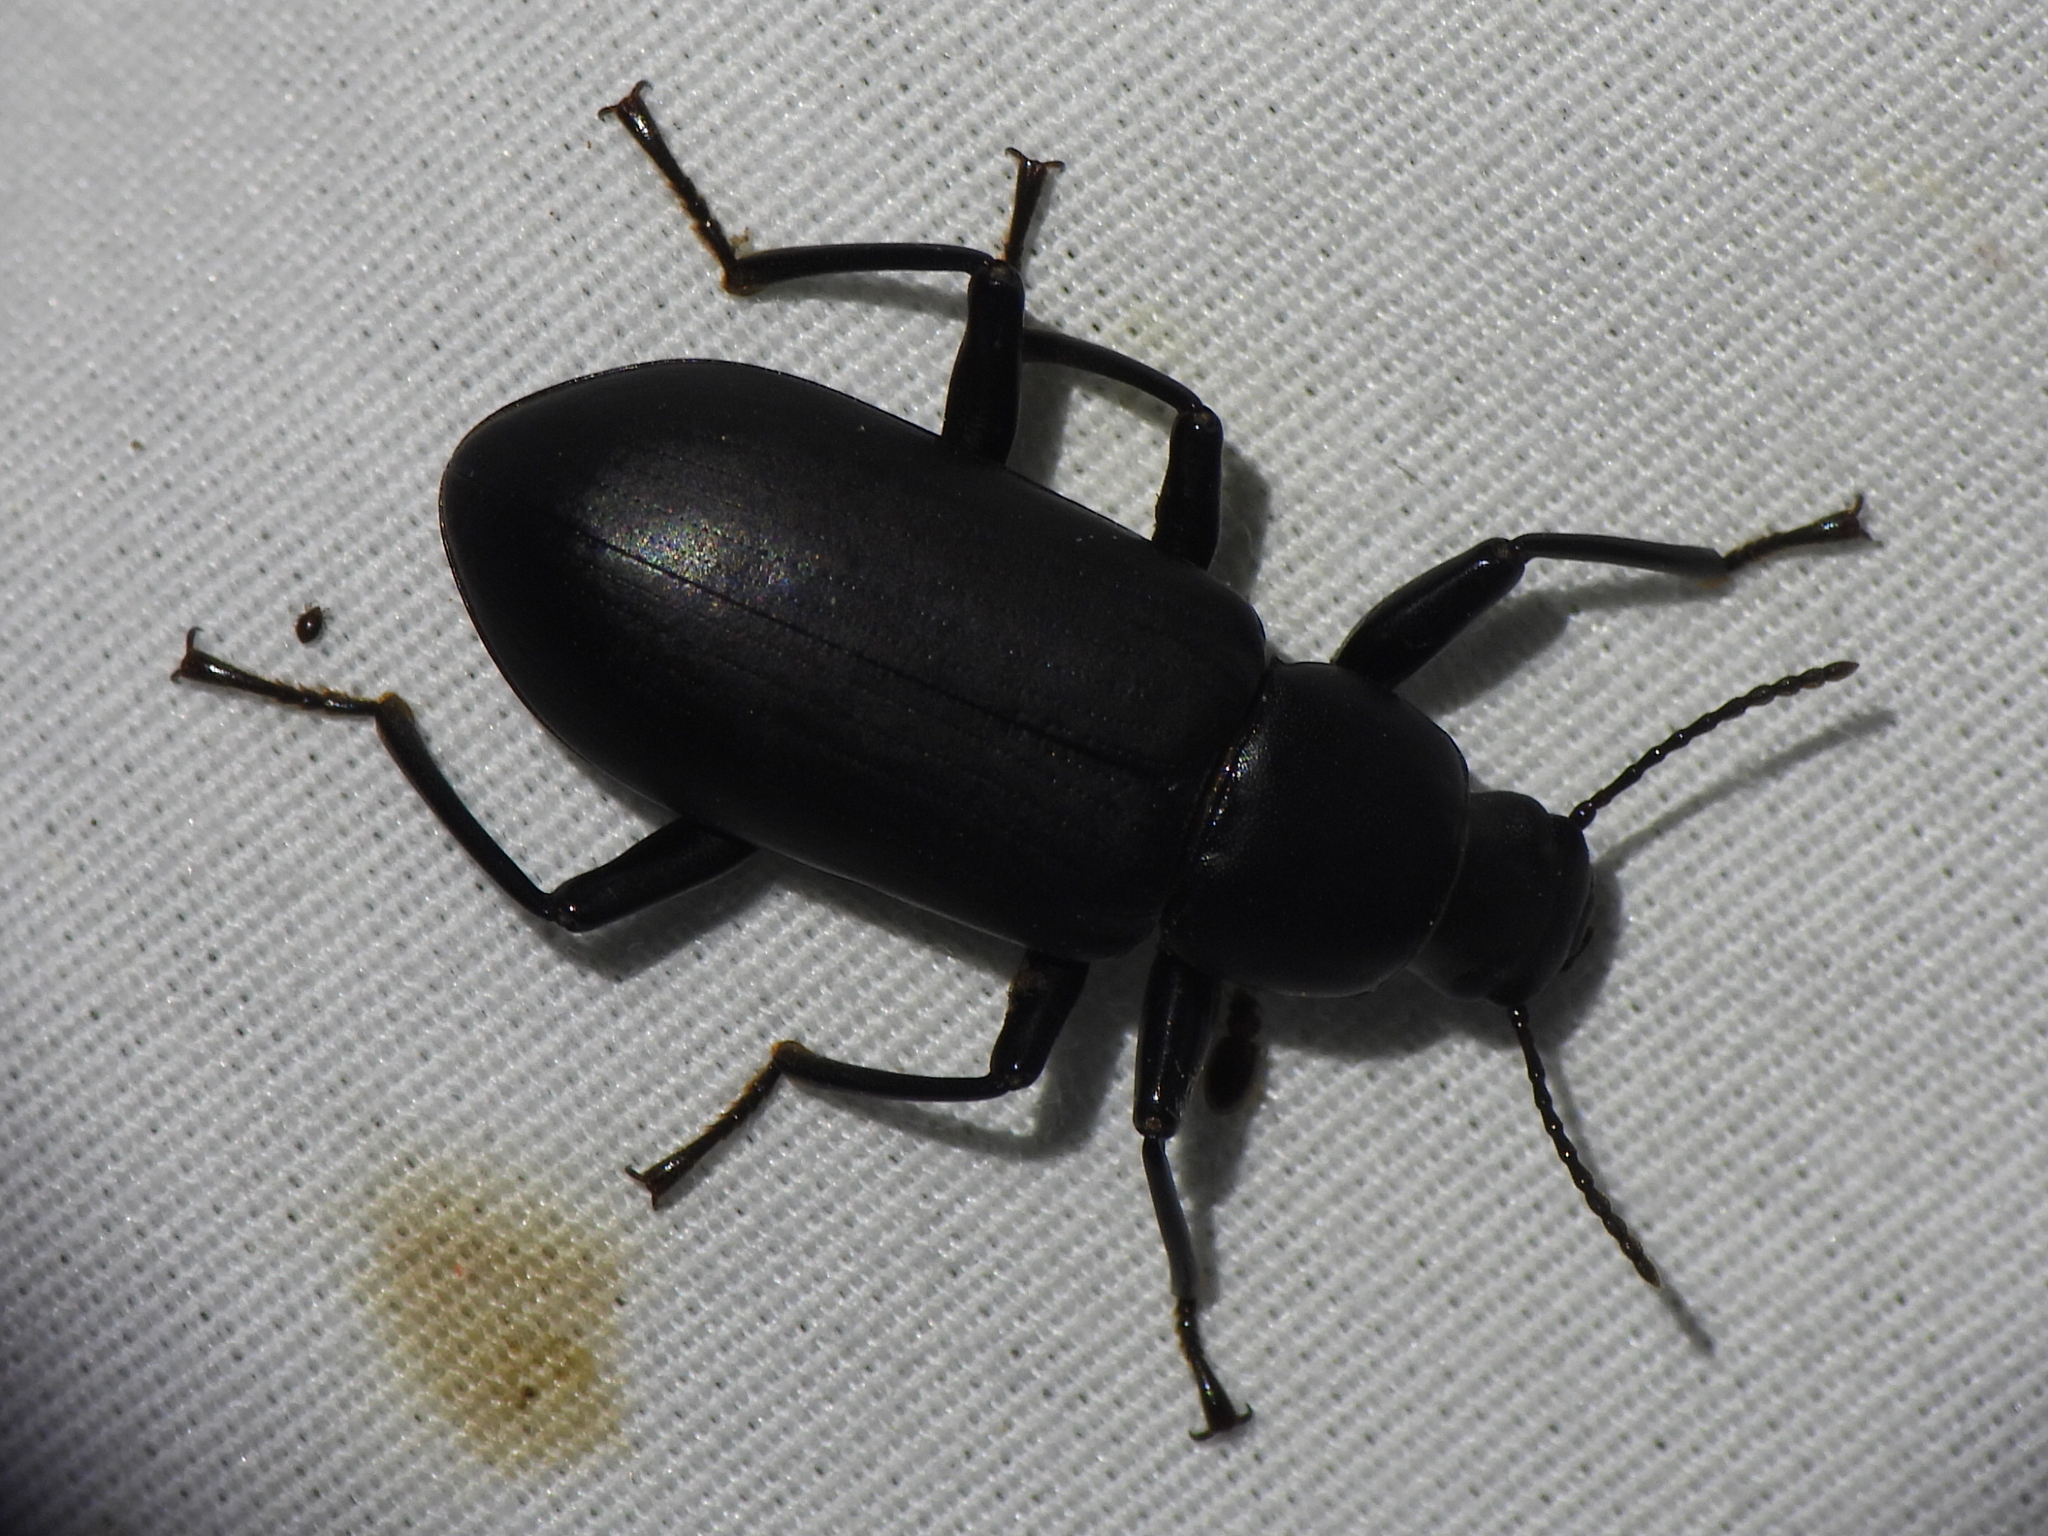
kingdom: Animalia
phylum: Arthropoda
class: Insecta
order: Coleoptera
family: Tenebrionidae
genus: Alobates
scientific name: Alobates
